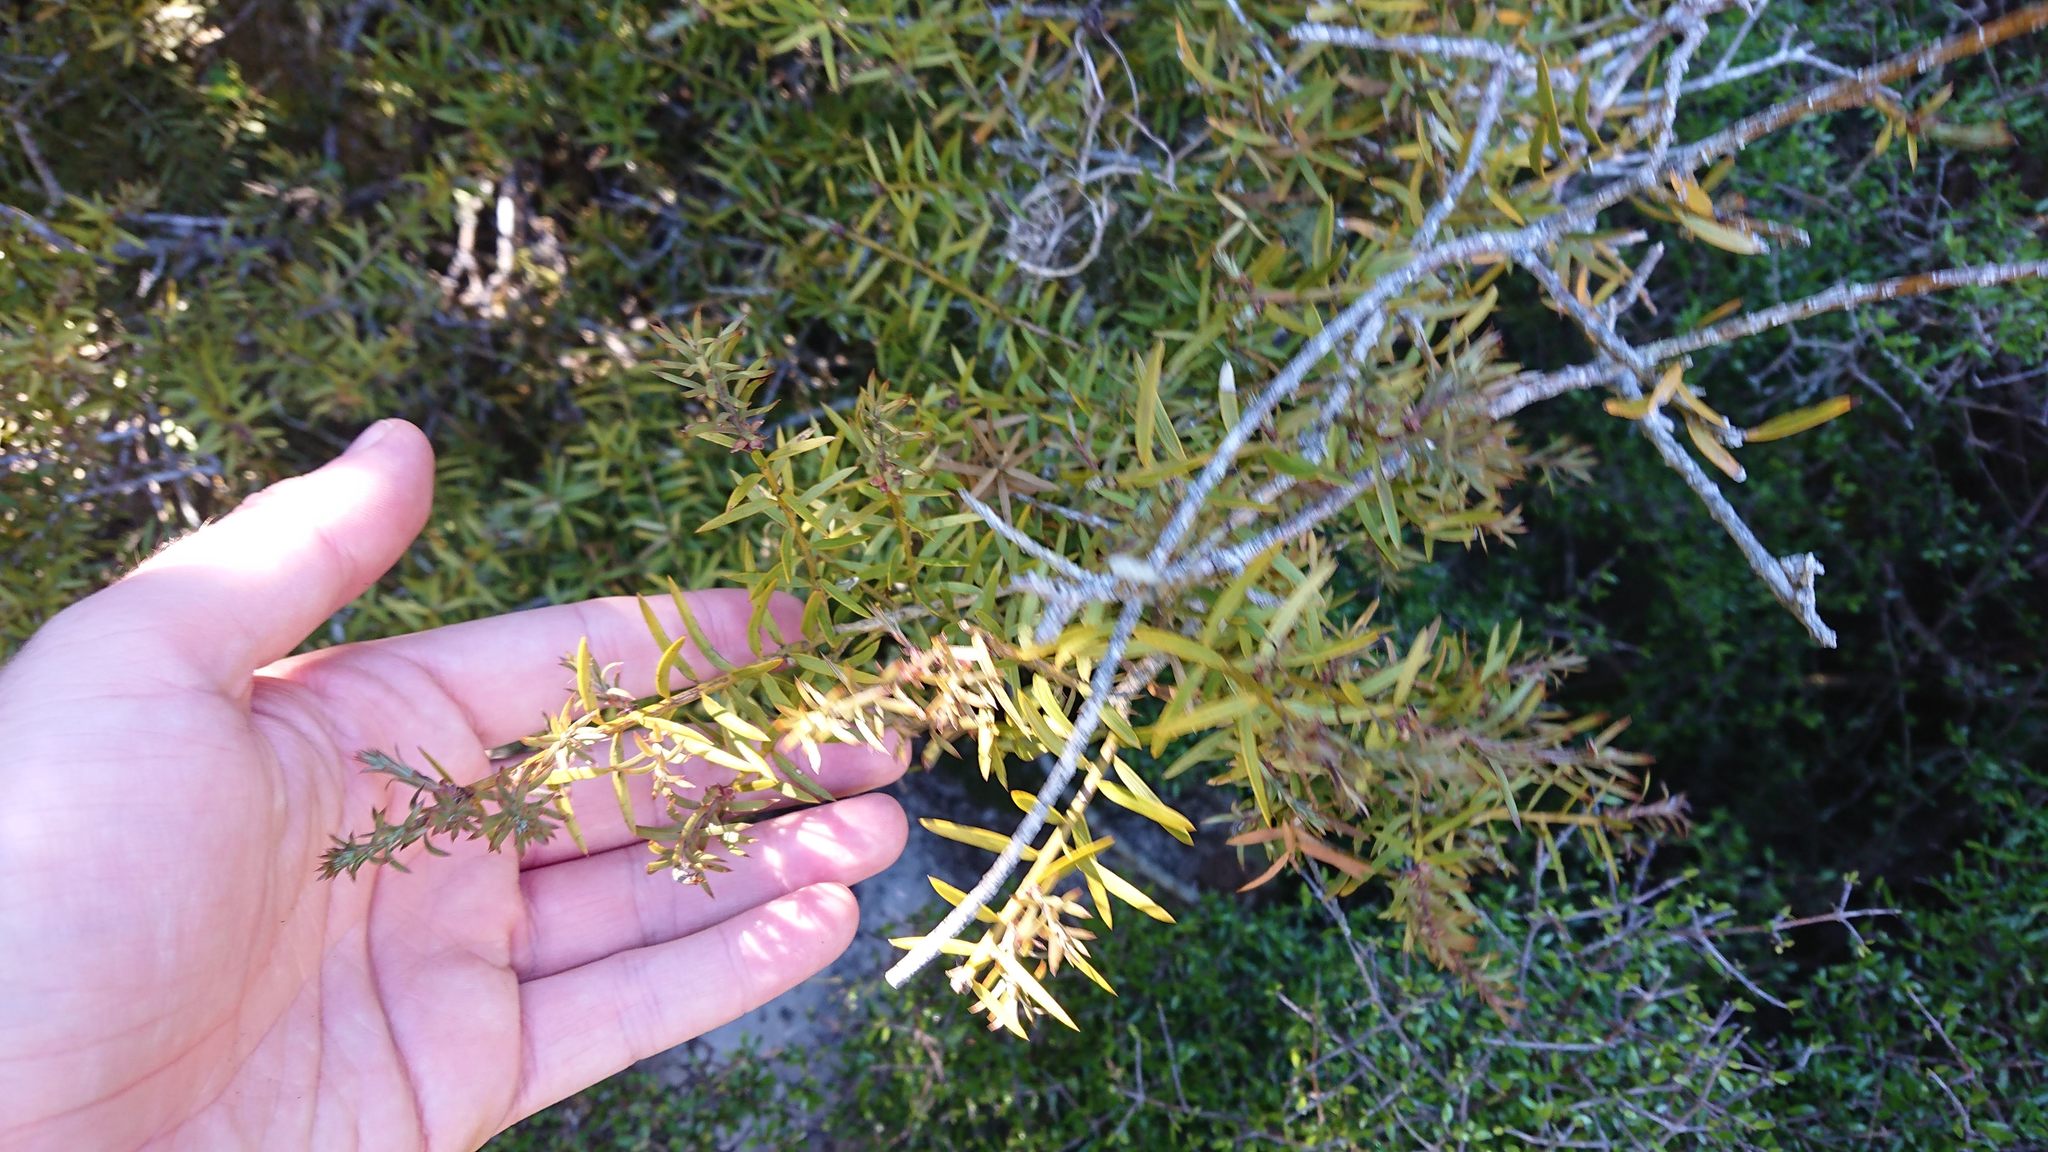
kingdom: Plantae
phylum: Tracheophyta
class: Pinopsida
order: Pinales
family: Podocarpaceae
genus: Podocarpus
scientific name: Podocarpus totara
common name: Totara
